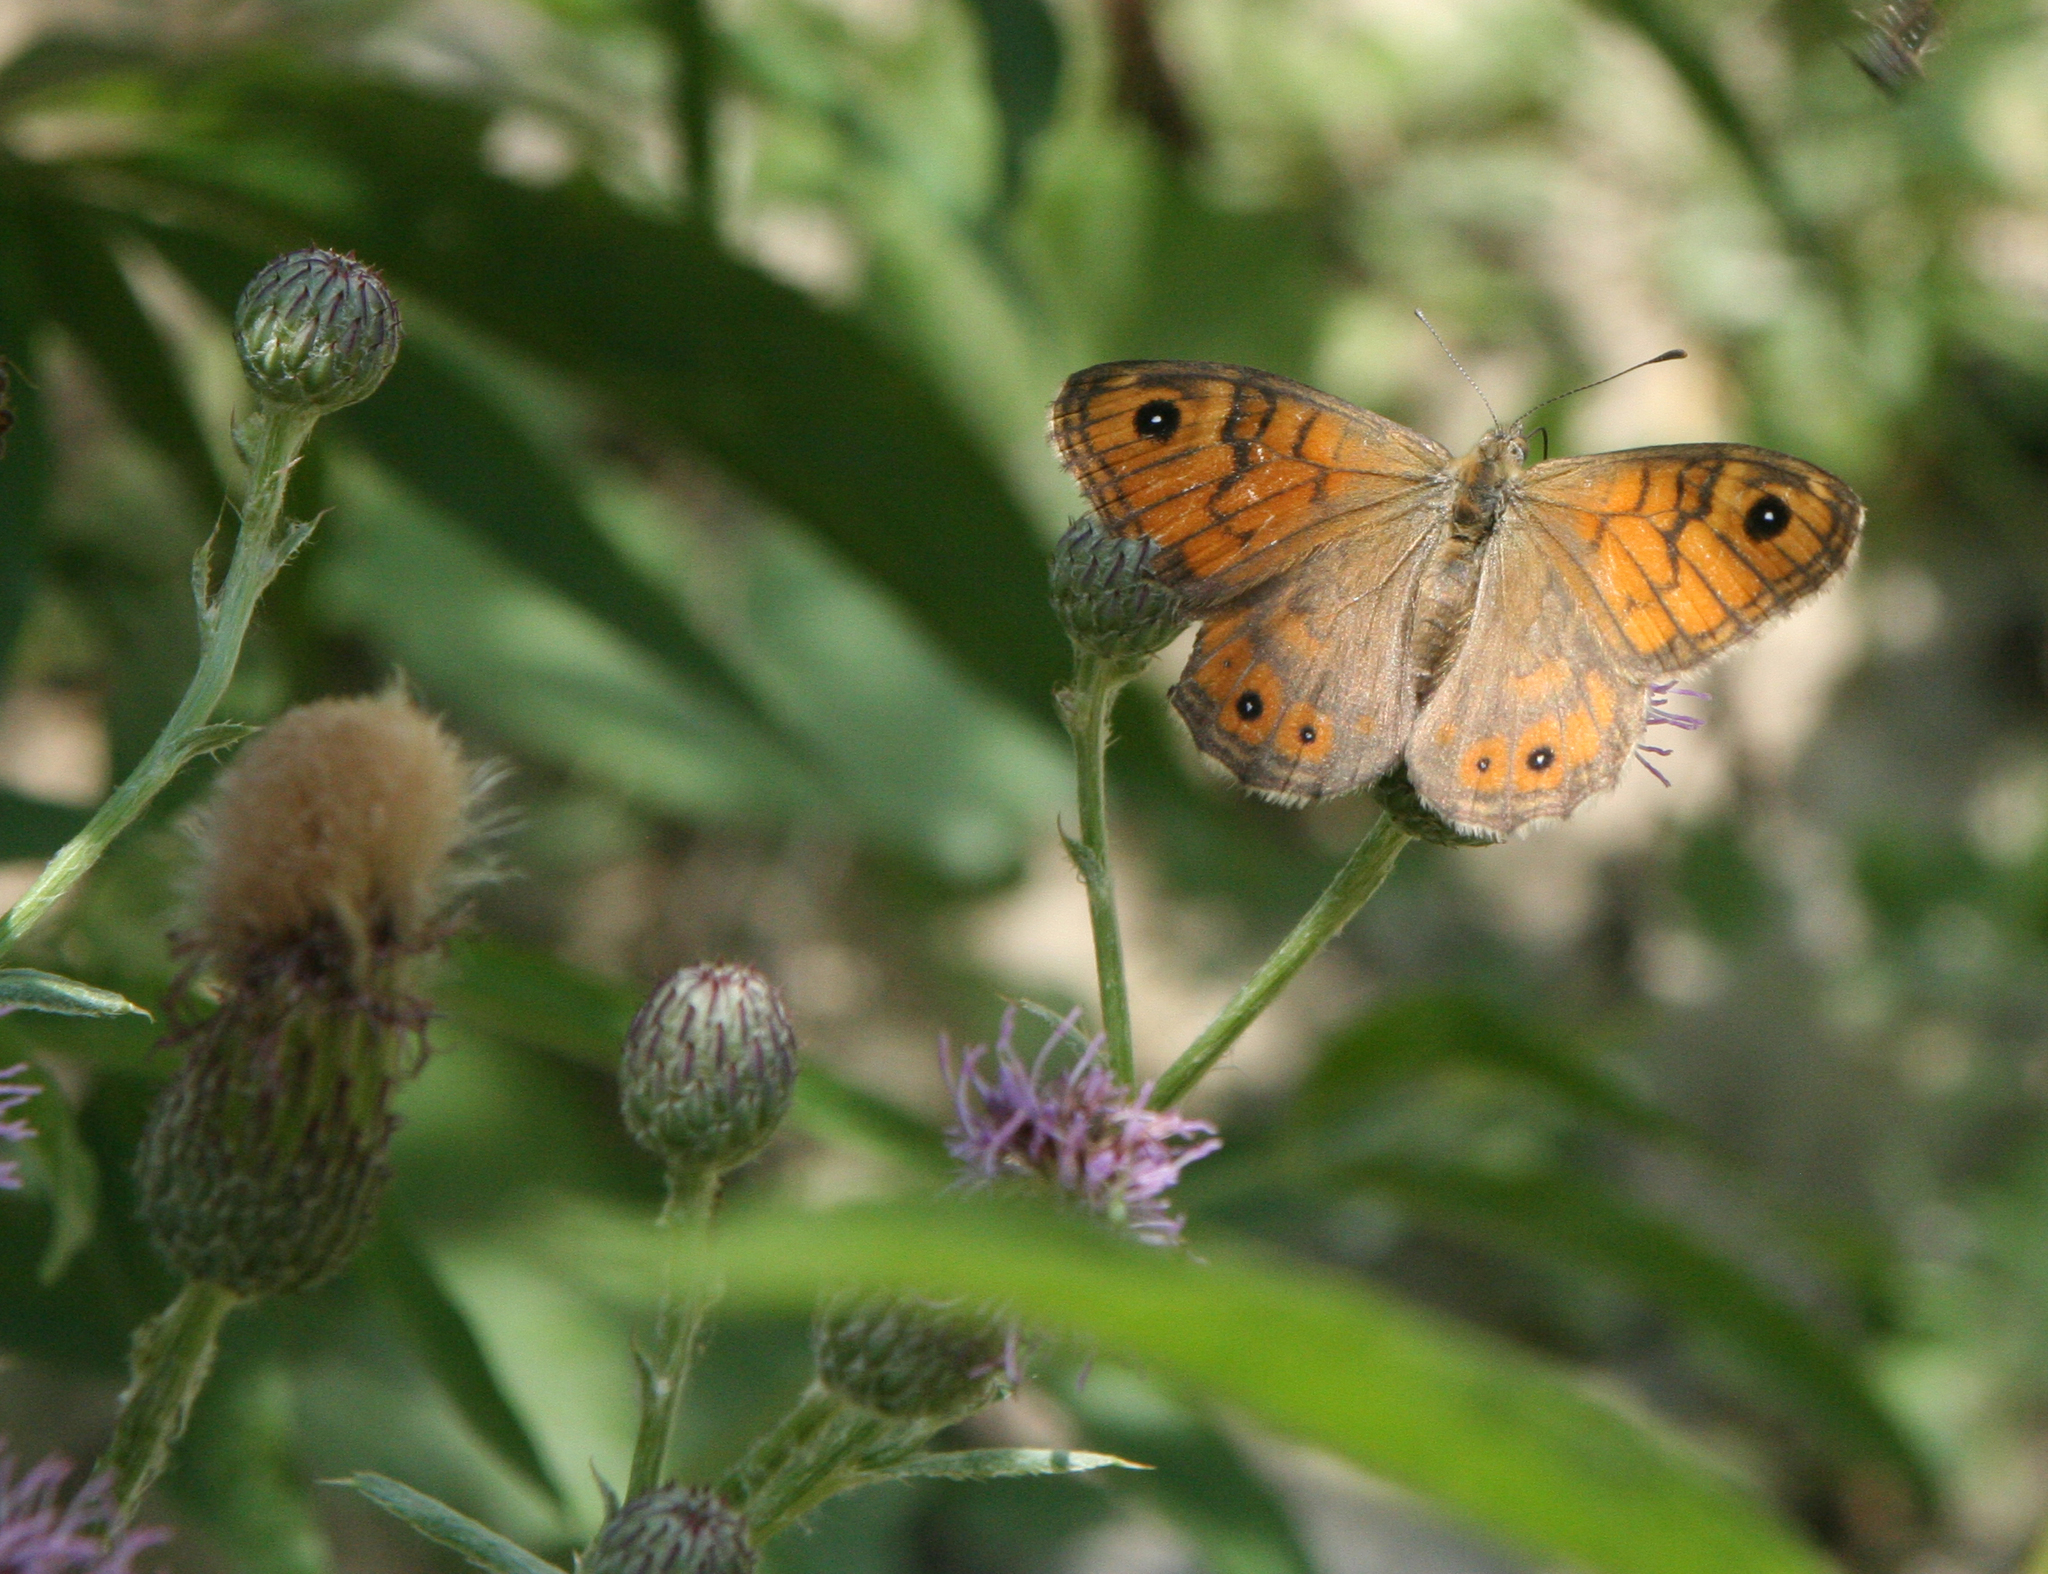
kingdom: Plantae
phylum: Tracheophyta
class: Magnoliopsida
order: Asterales
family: Asteraceae
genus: Cirsium
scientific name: Cirsium arvense
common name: Creeping thistle
